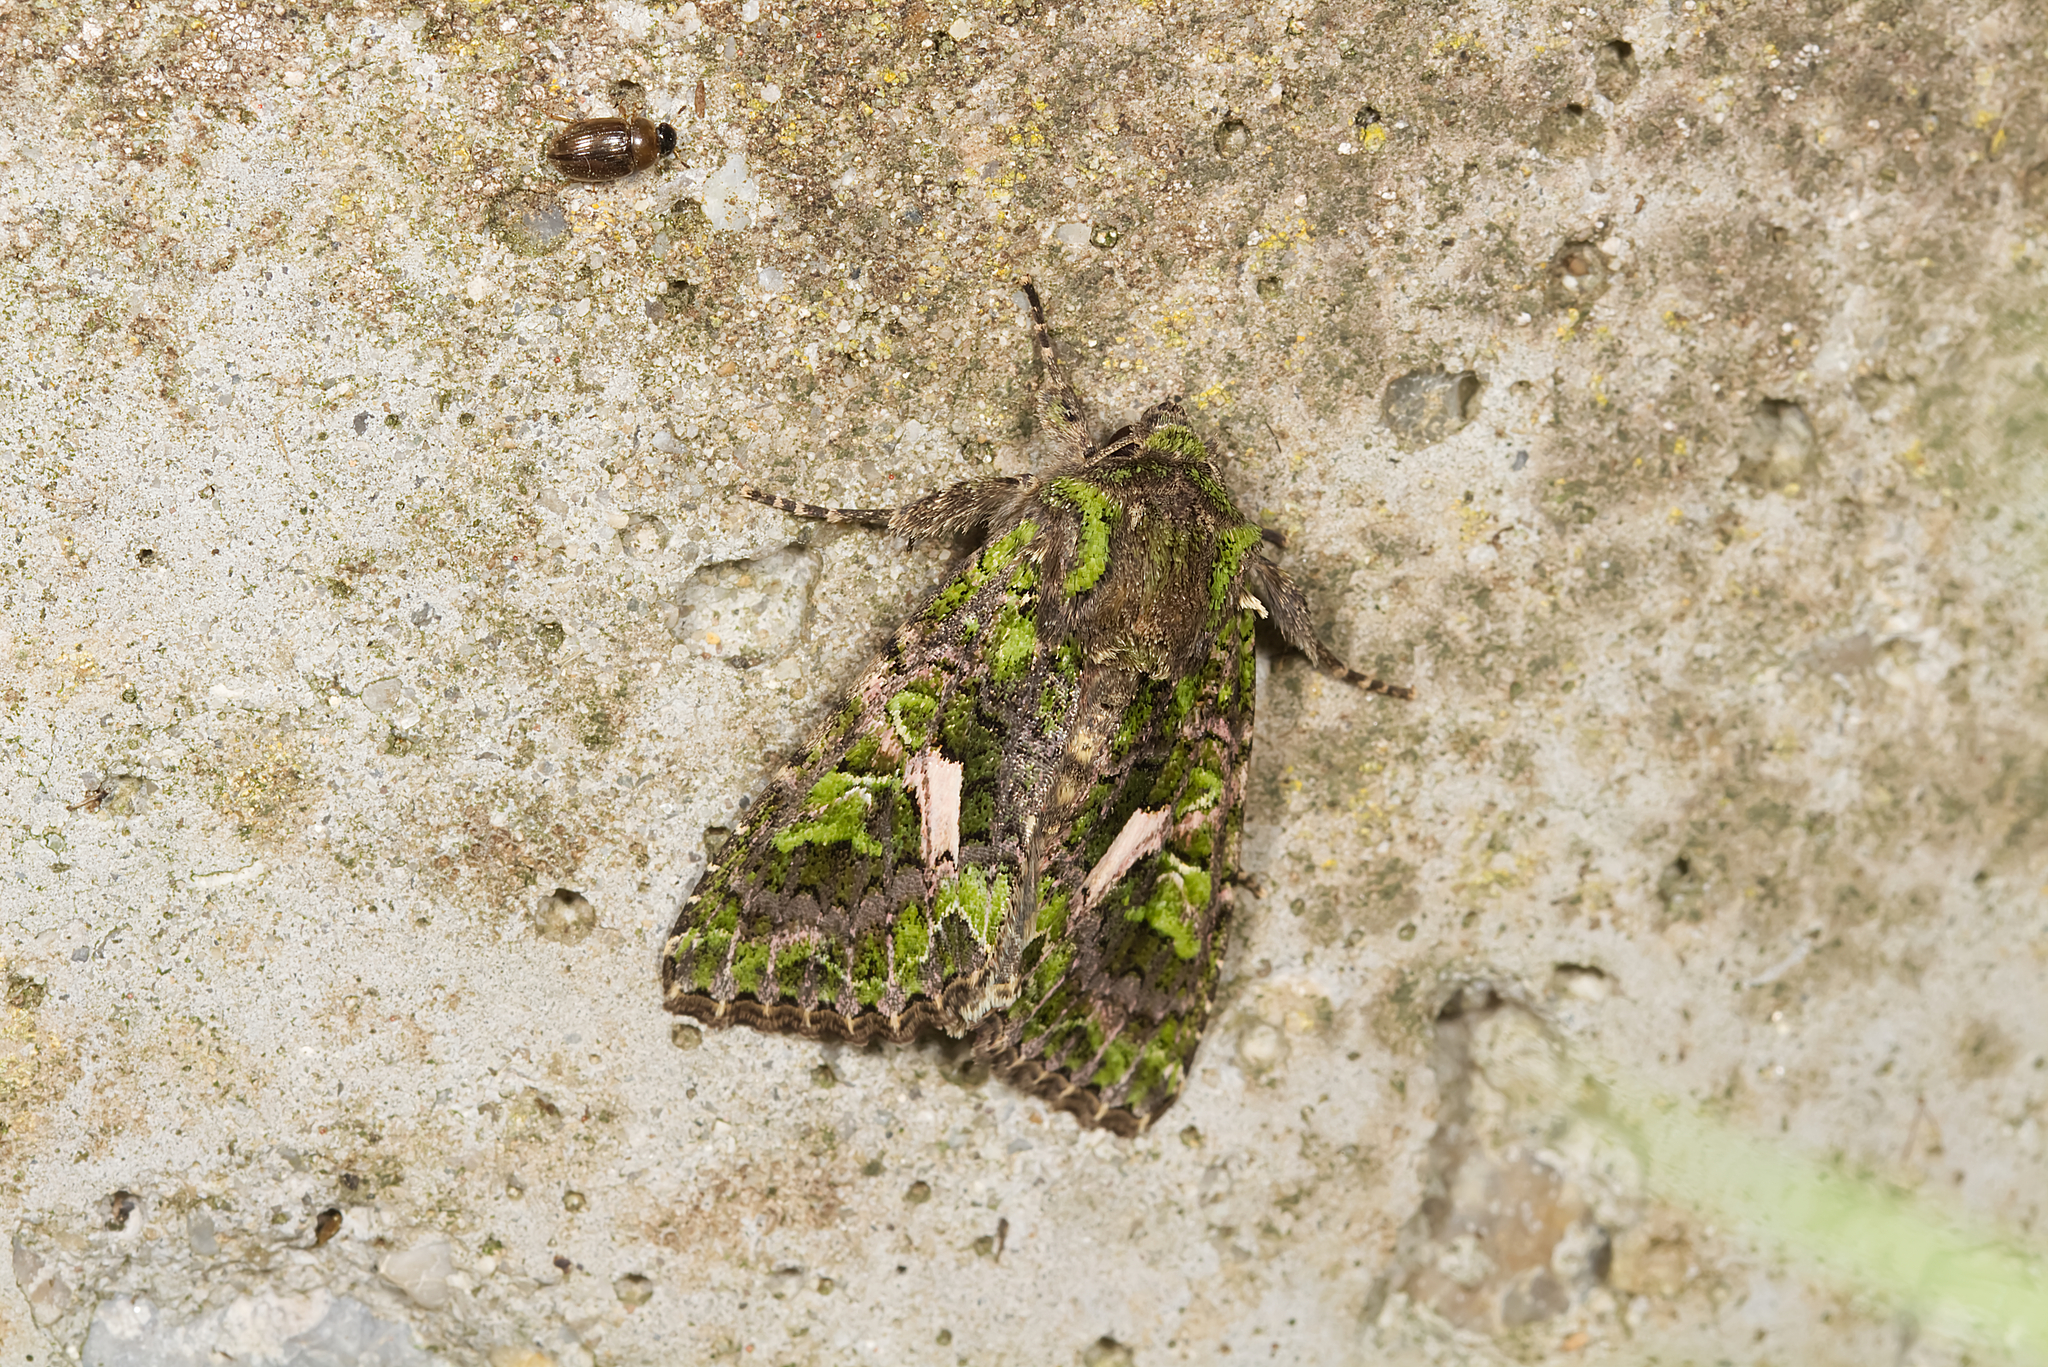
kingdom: Animalia
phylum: Arthropoda
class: Insecta
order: Lepidoptera
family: Noctuidae
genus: Trachea
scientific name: Trachea atriplicis
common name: Orache moth
